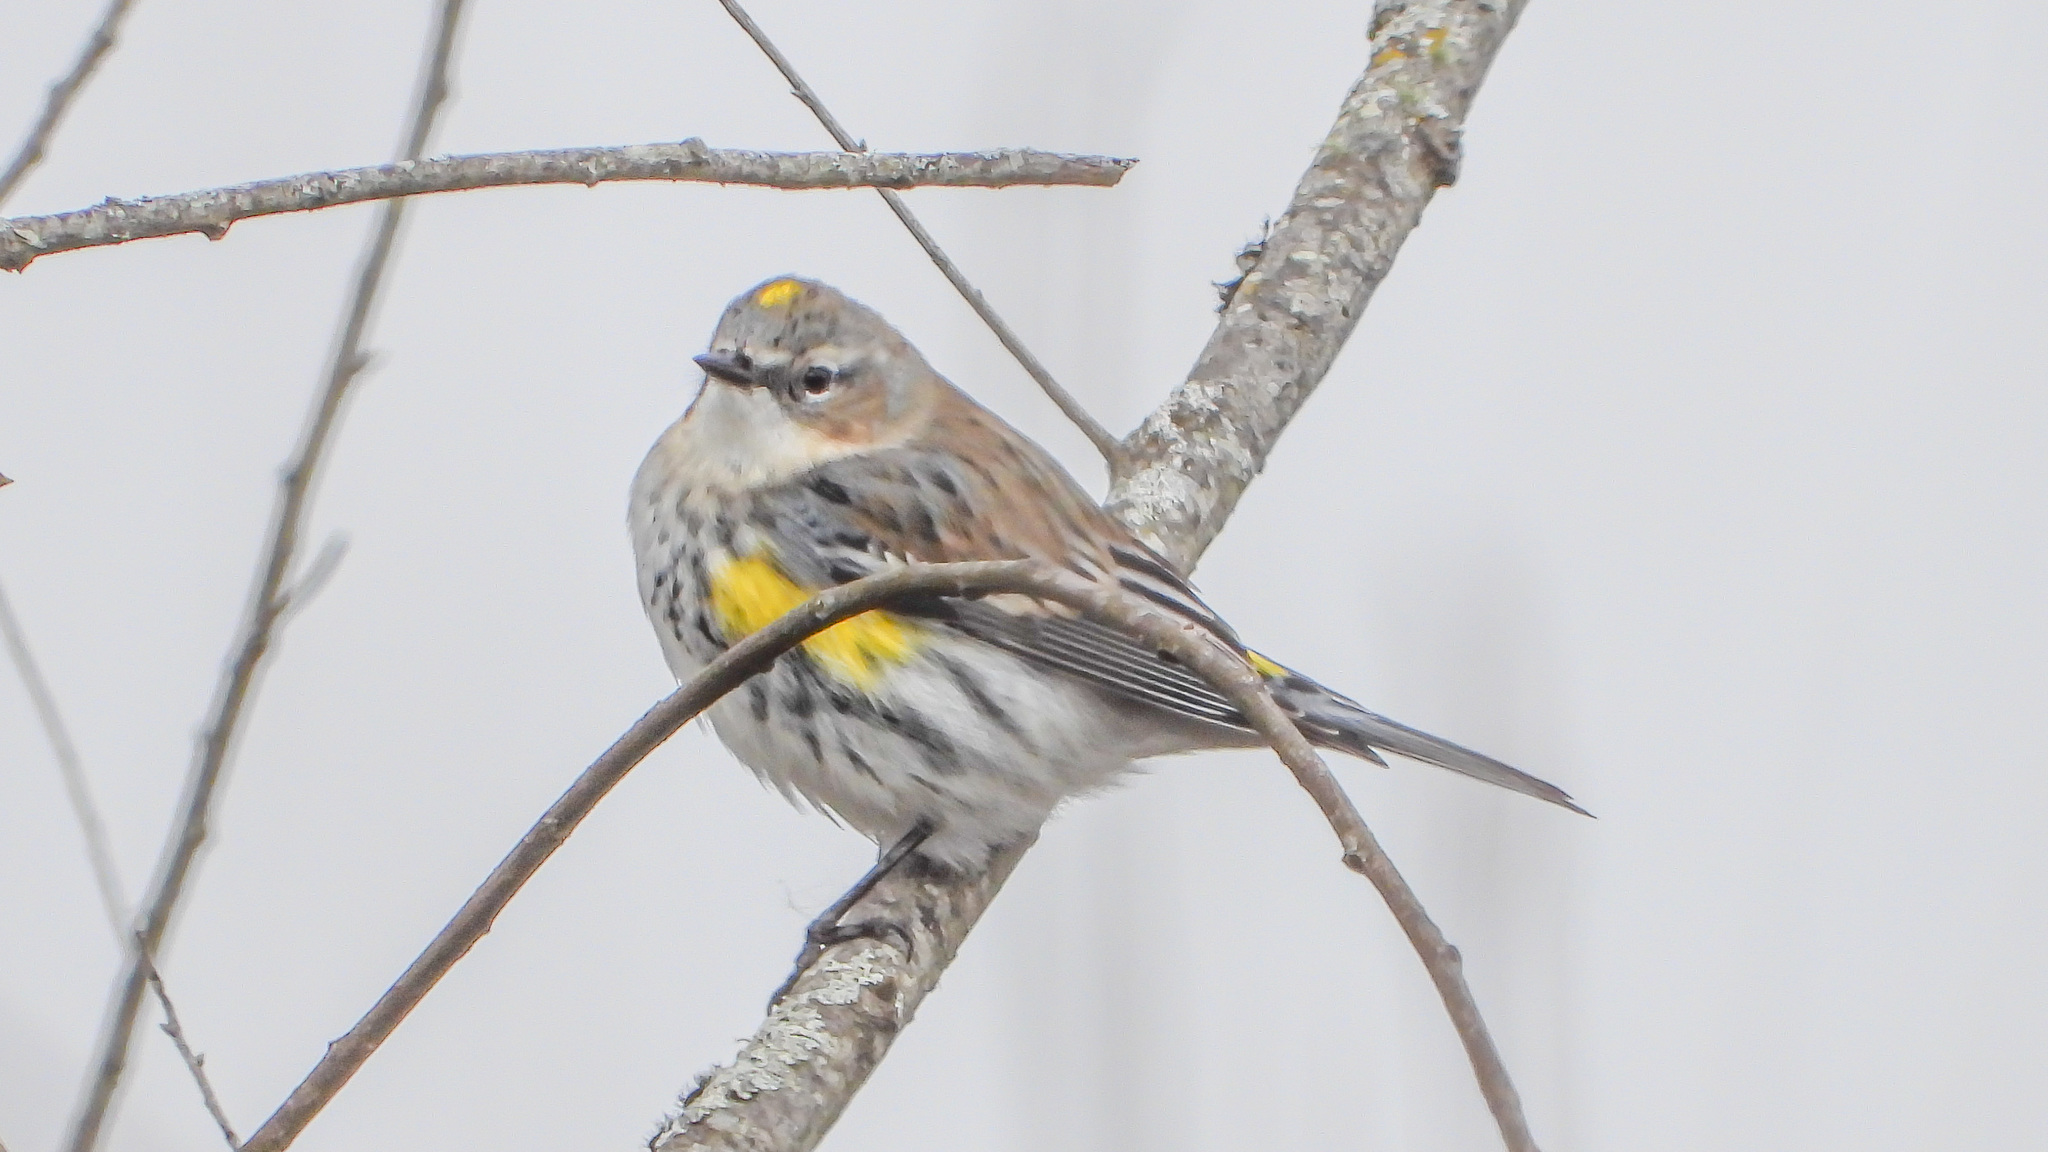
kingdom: Animalia
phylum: Chordata
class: Aves
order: Passeriformes
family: Parulidae
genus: Setophaga
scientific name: Setophaga coronata
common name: Myrtle warbler
